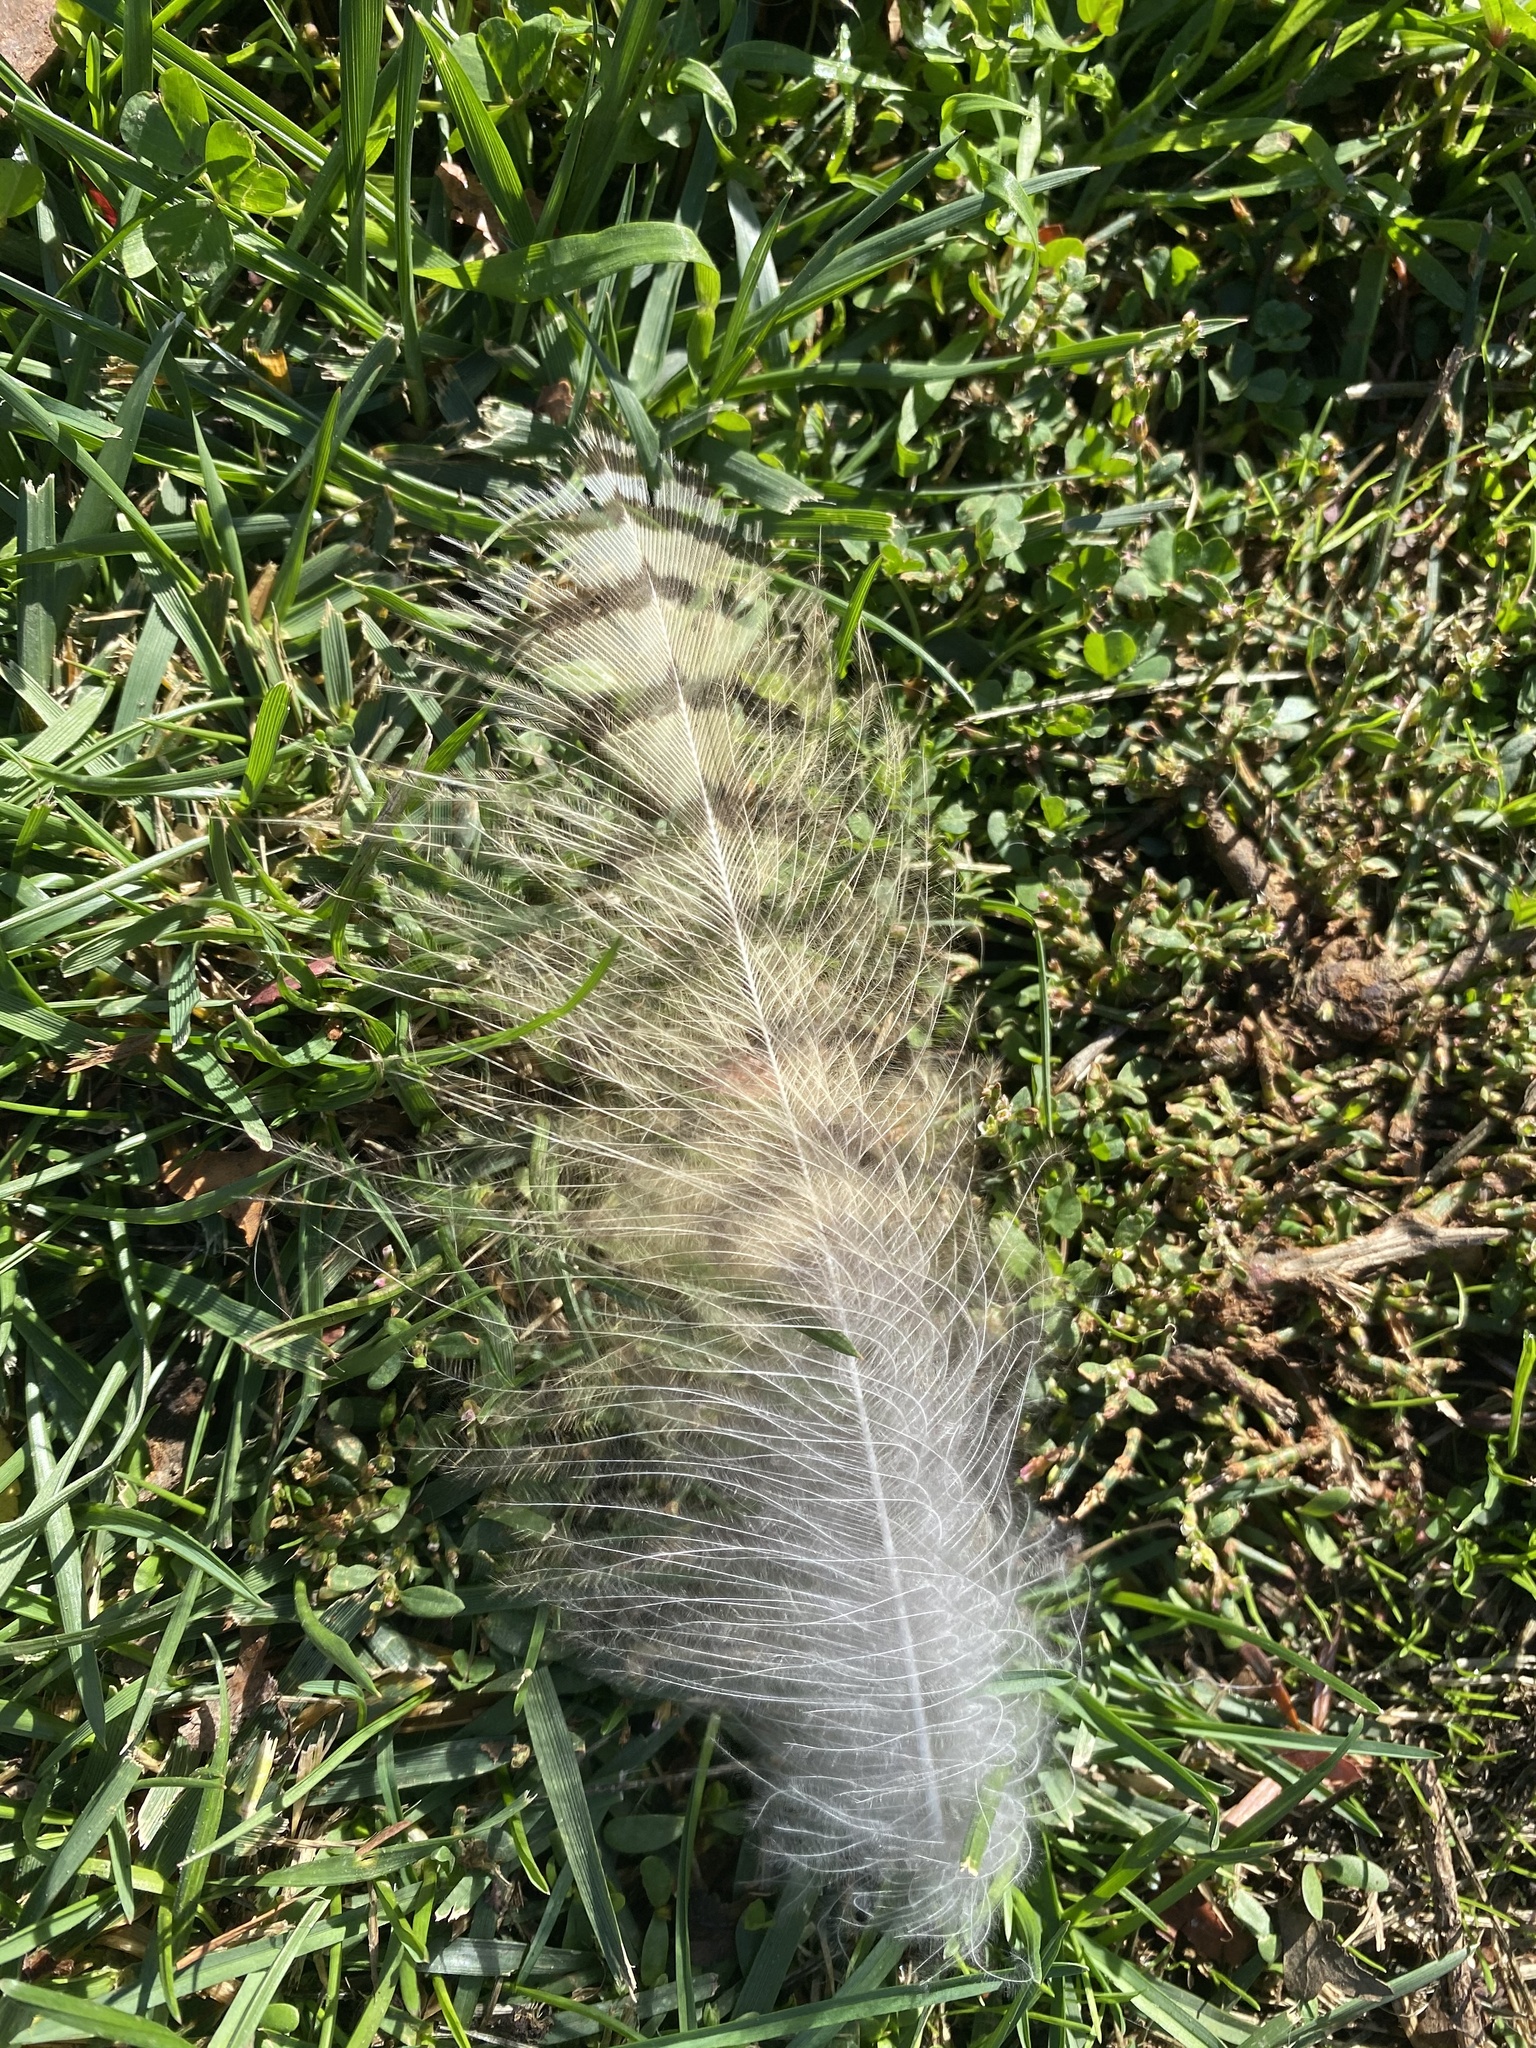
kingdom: Animalia
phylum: Chordata
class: Aves
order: Strigiformes
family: Strigidae
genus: Bubo
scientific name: Bubo virginianus
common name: Great horned owl
